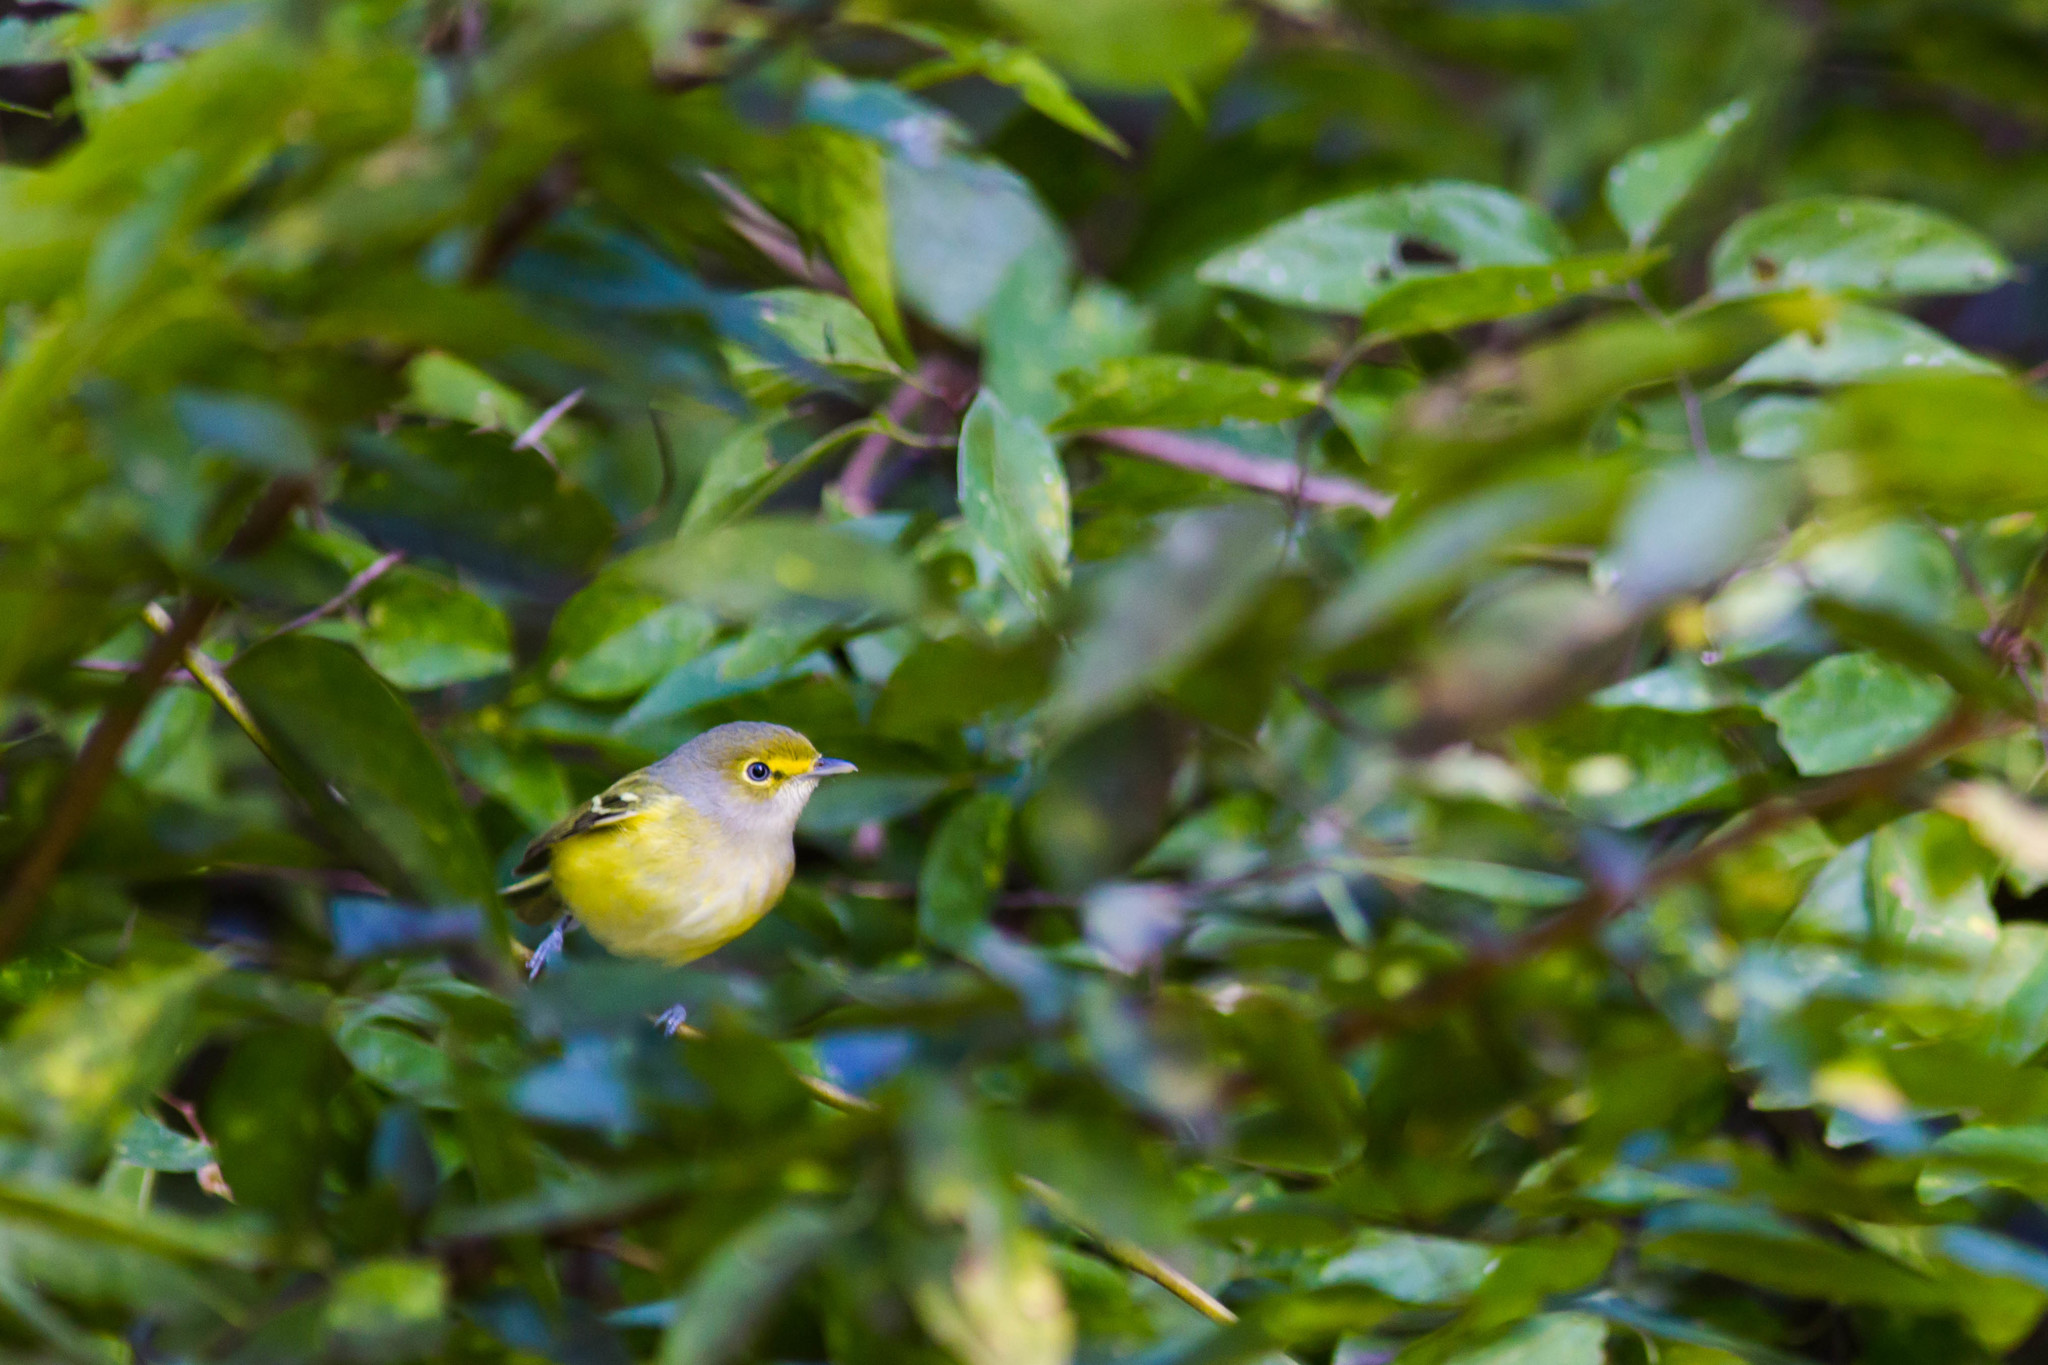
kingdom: Animalia
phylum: Chordata
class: Aves
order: Passeriformes
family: Vireonidae
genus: Vireo
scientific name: Vireo griseus
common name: White-eyed vireo
